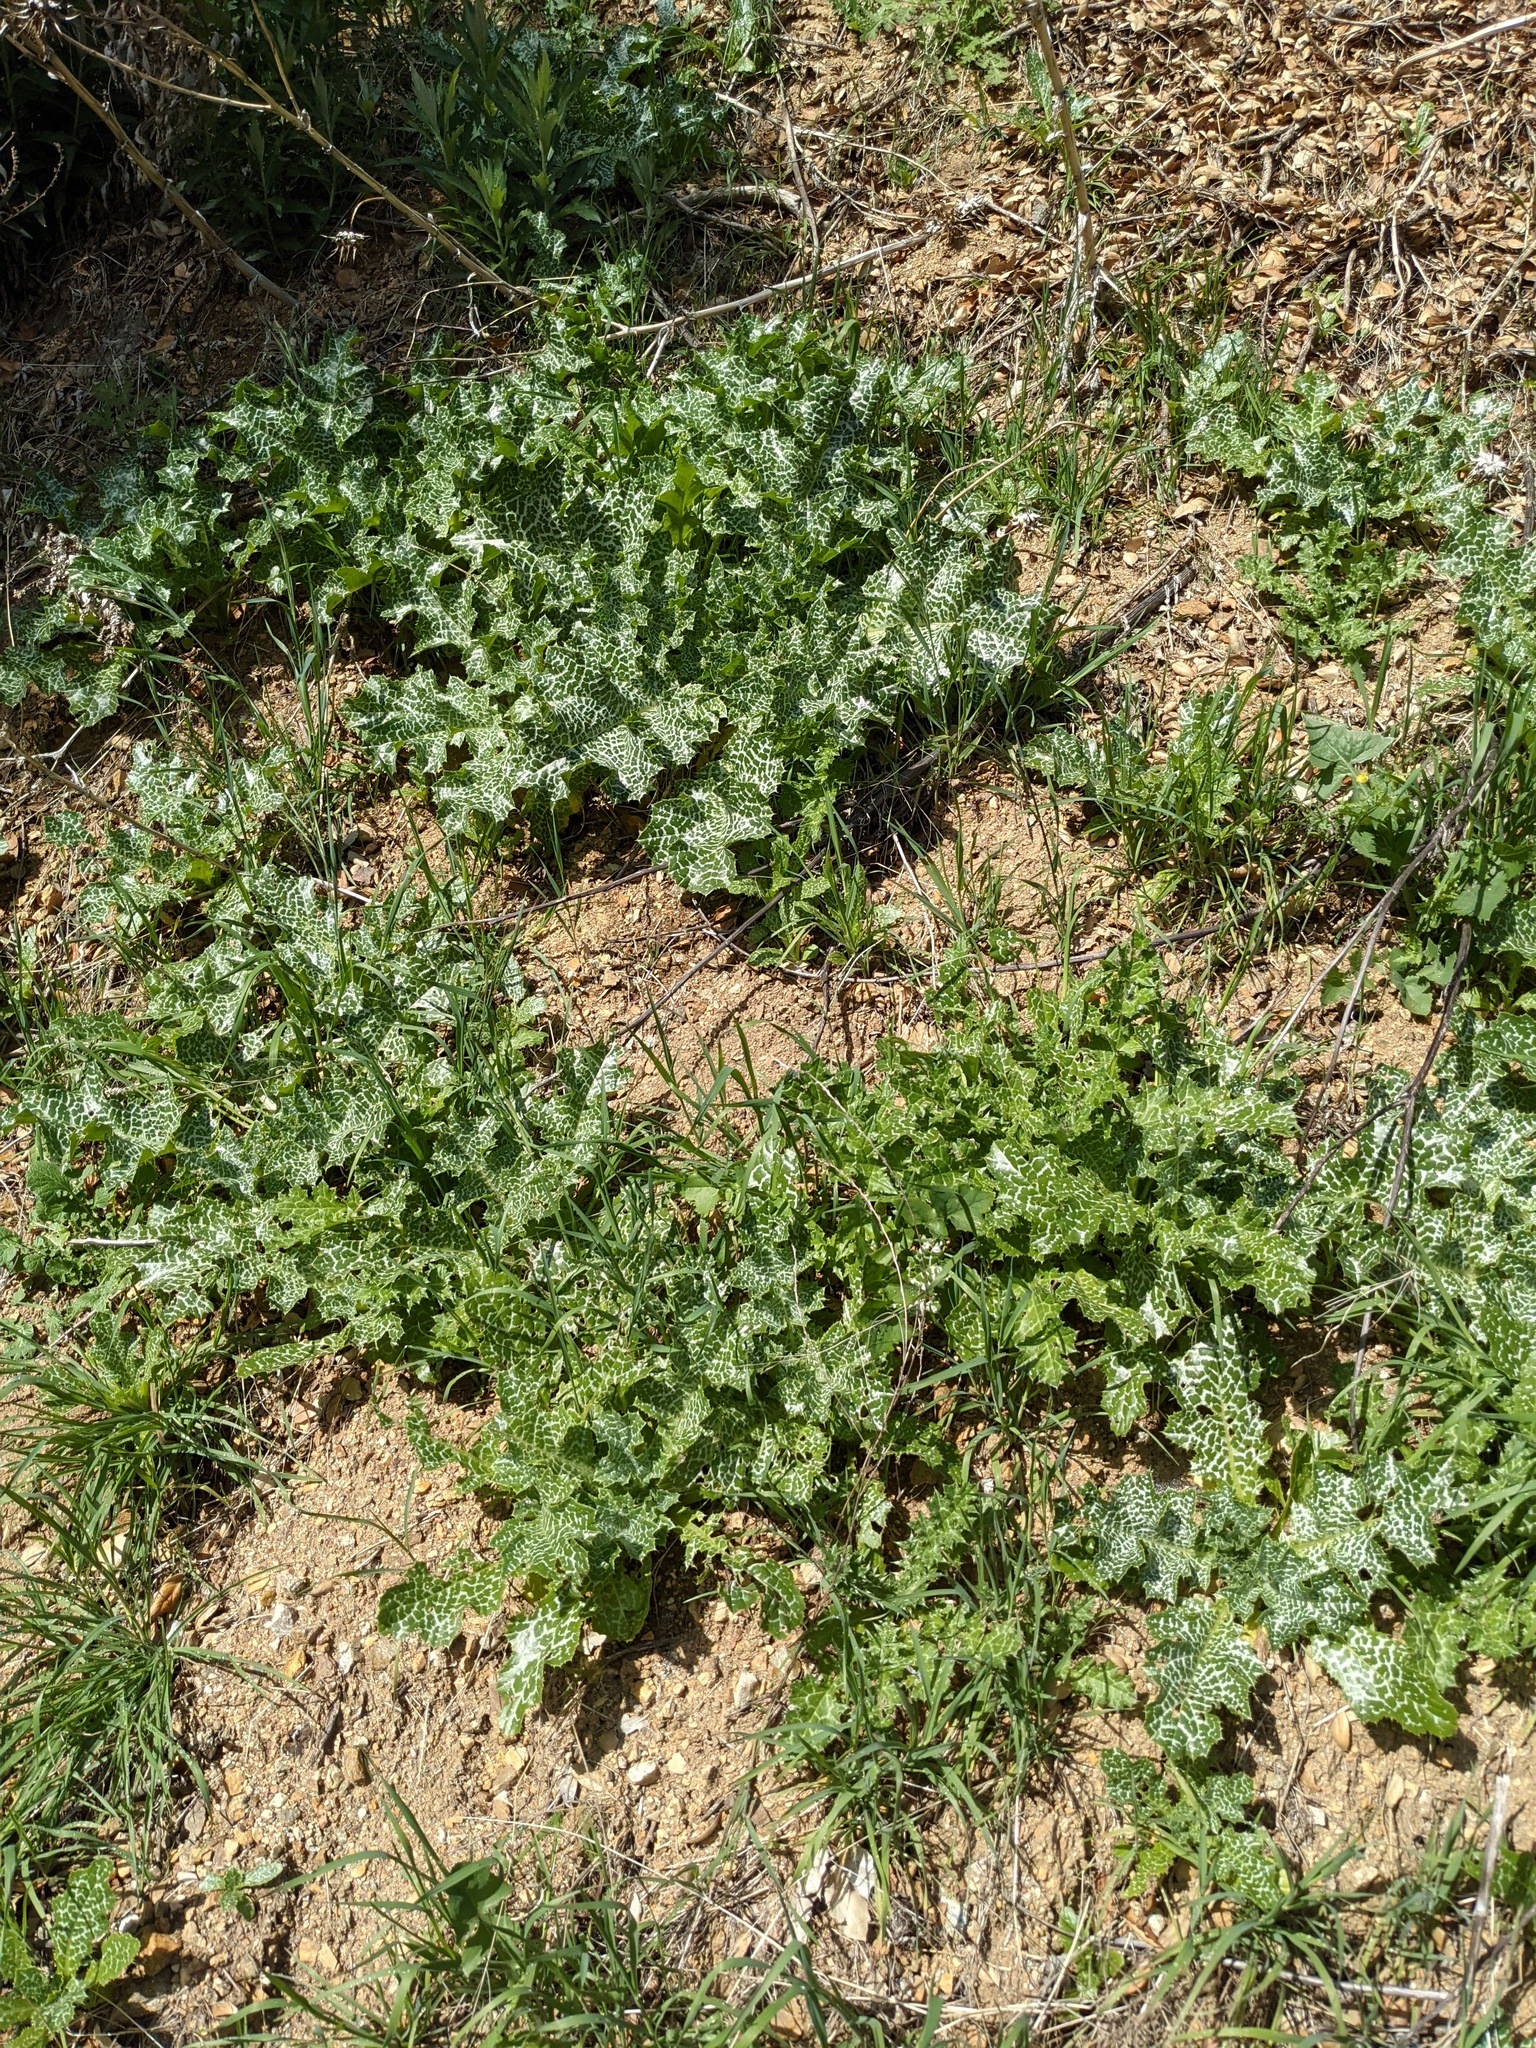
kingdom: Plantae
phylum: Tracheophyta
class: Magnoliopsida
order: Asterales
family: Asteraceae
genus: Silybum
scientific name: Silybum marianum
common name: Milk thistle
